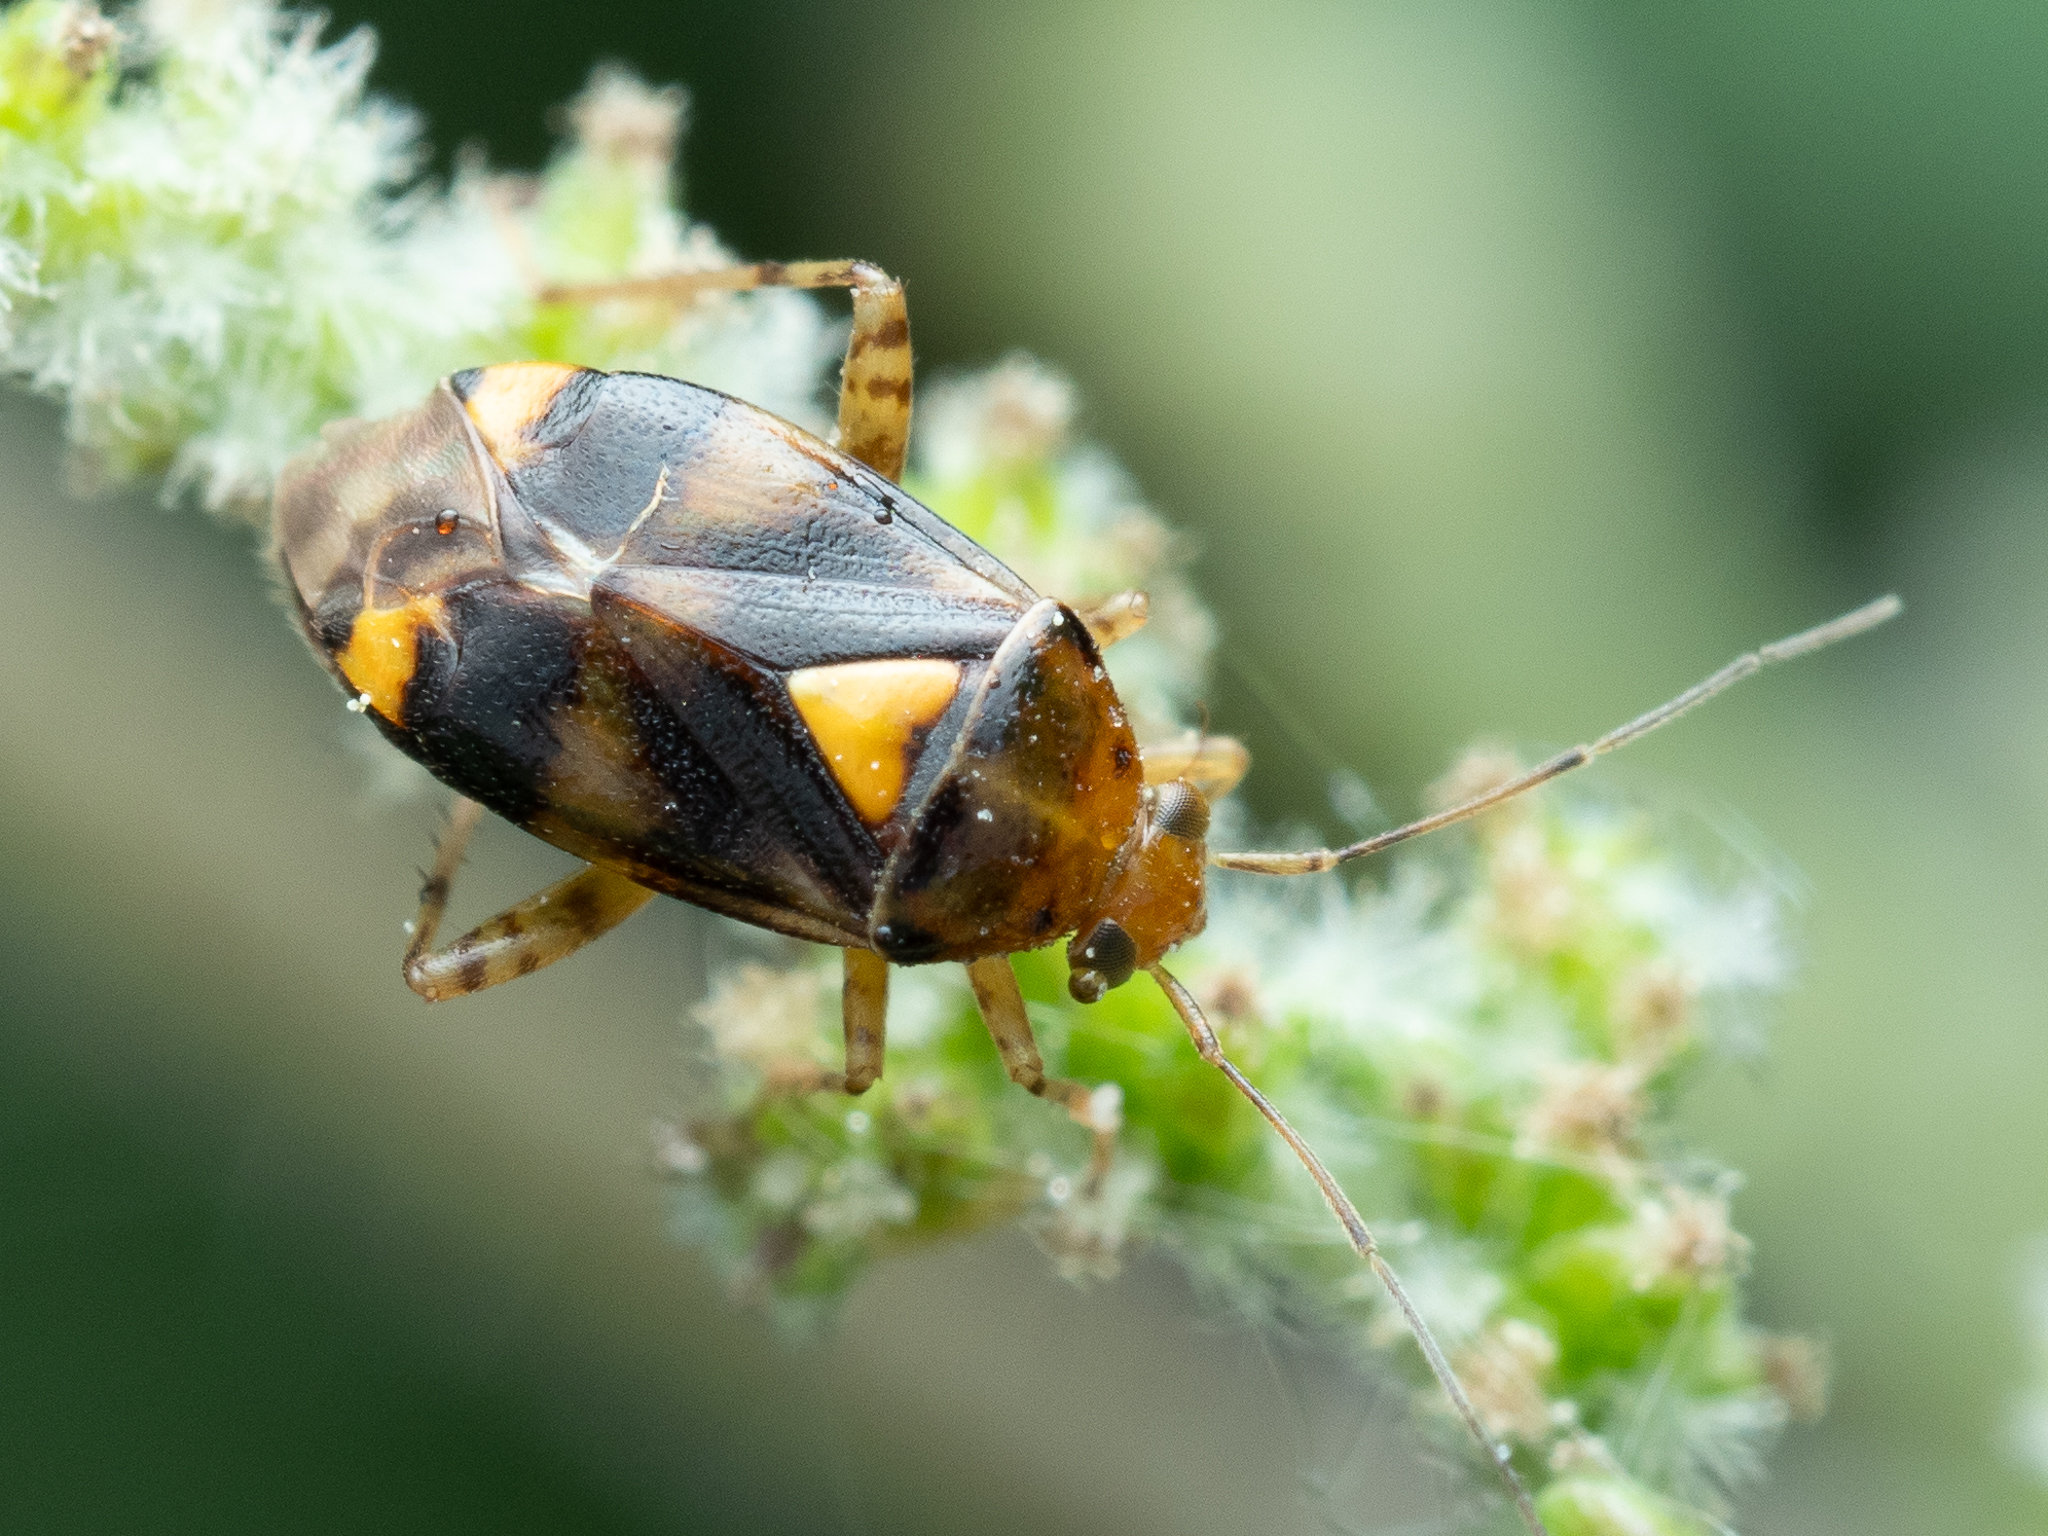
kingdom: Animalia
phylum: Arthropoda
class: Insecta
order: Hemiptera
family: Miridae
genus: Liocoris
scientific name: Liocoris tripustulatus
